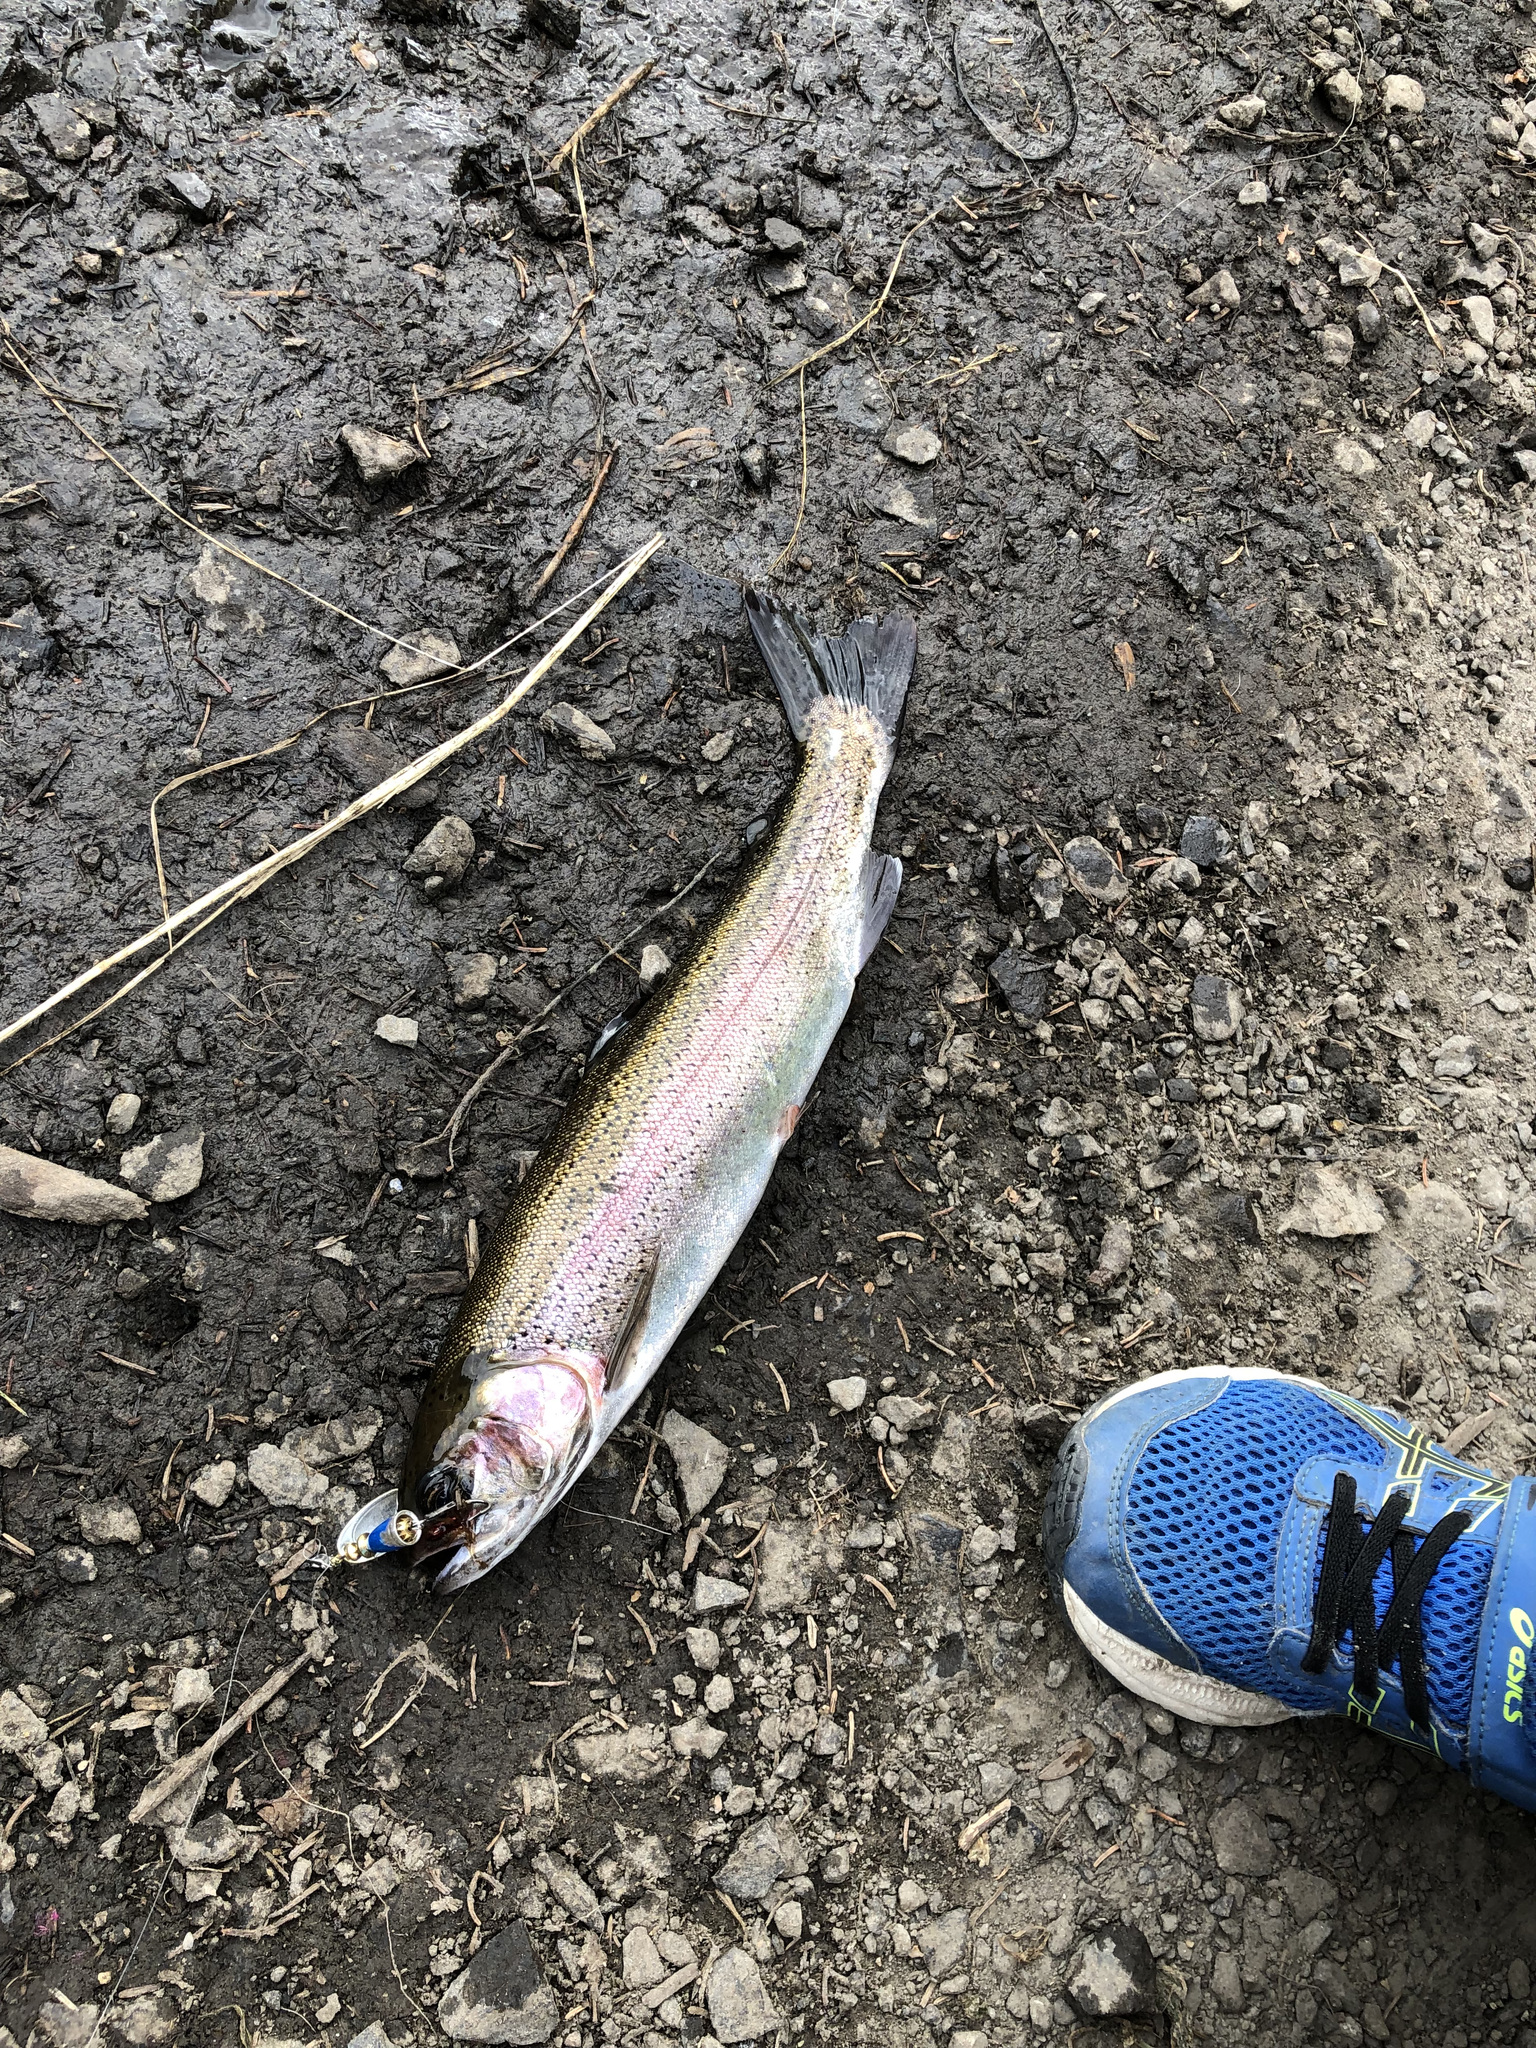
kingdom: Animalia
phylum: Chordata
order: Salmoniformes
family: Salmonidae
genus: Oncorhynchus
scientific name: Oncorhynchus mykiss
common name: Rainbow trout
